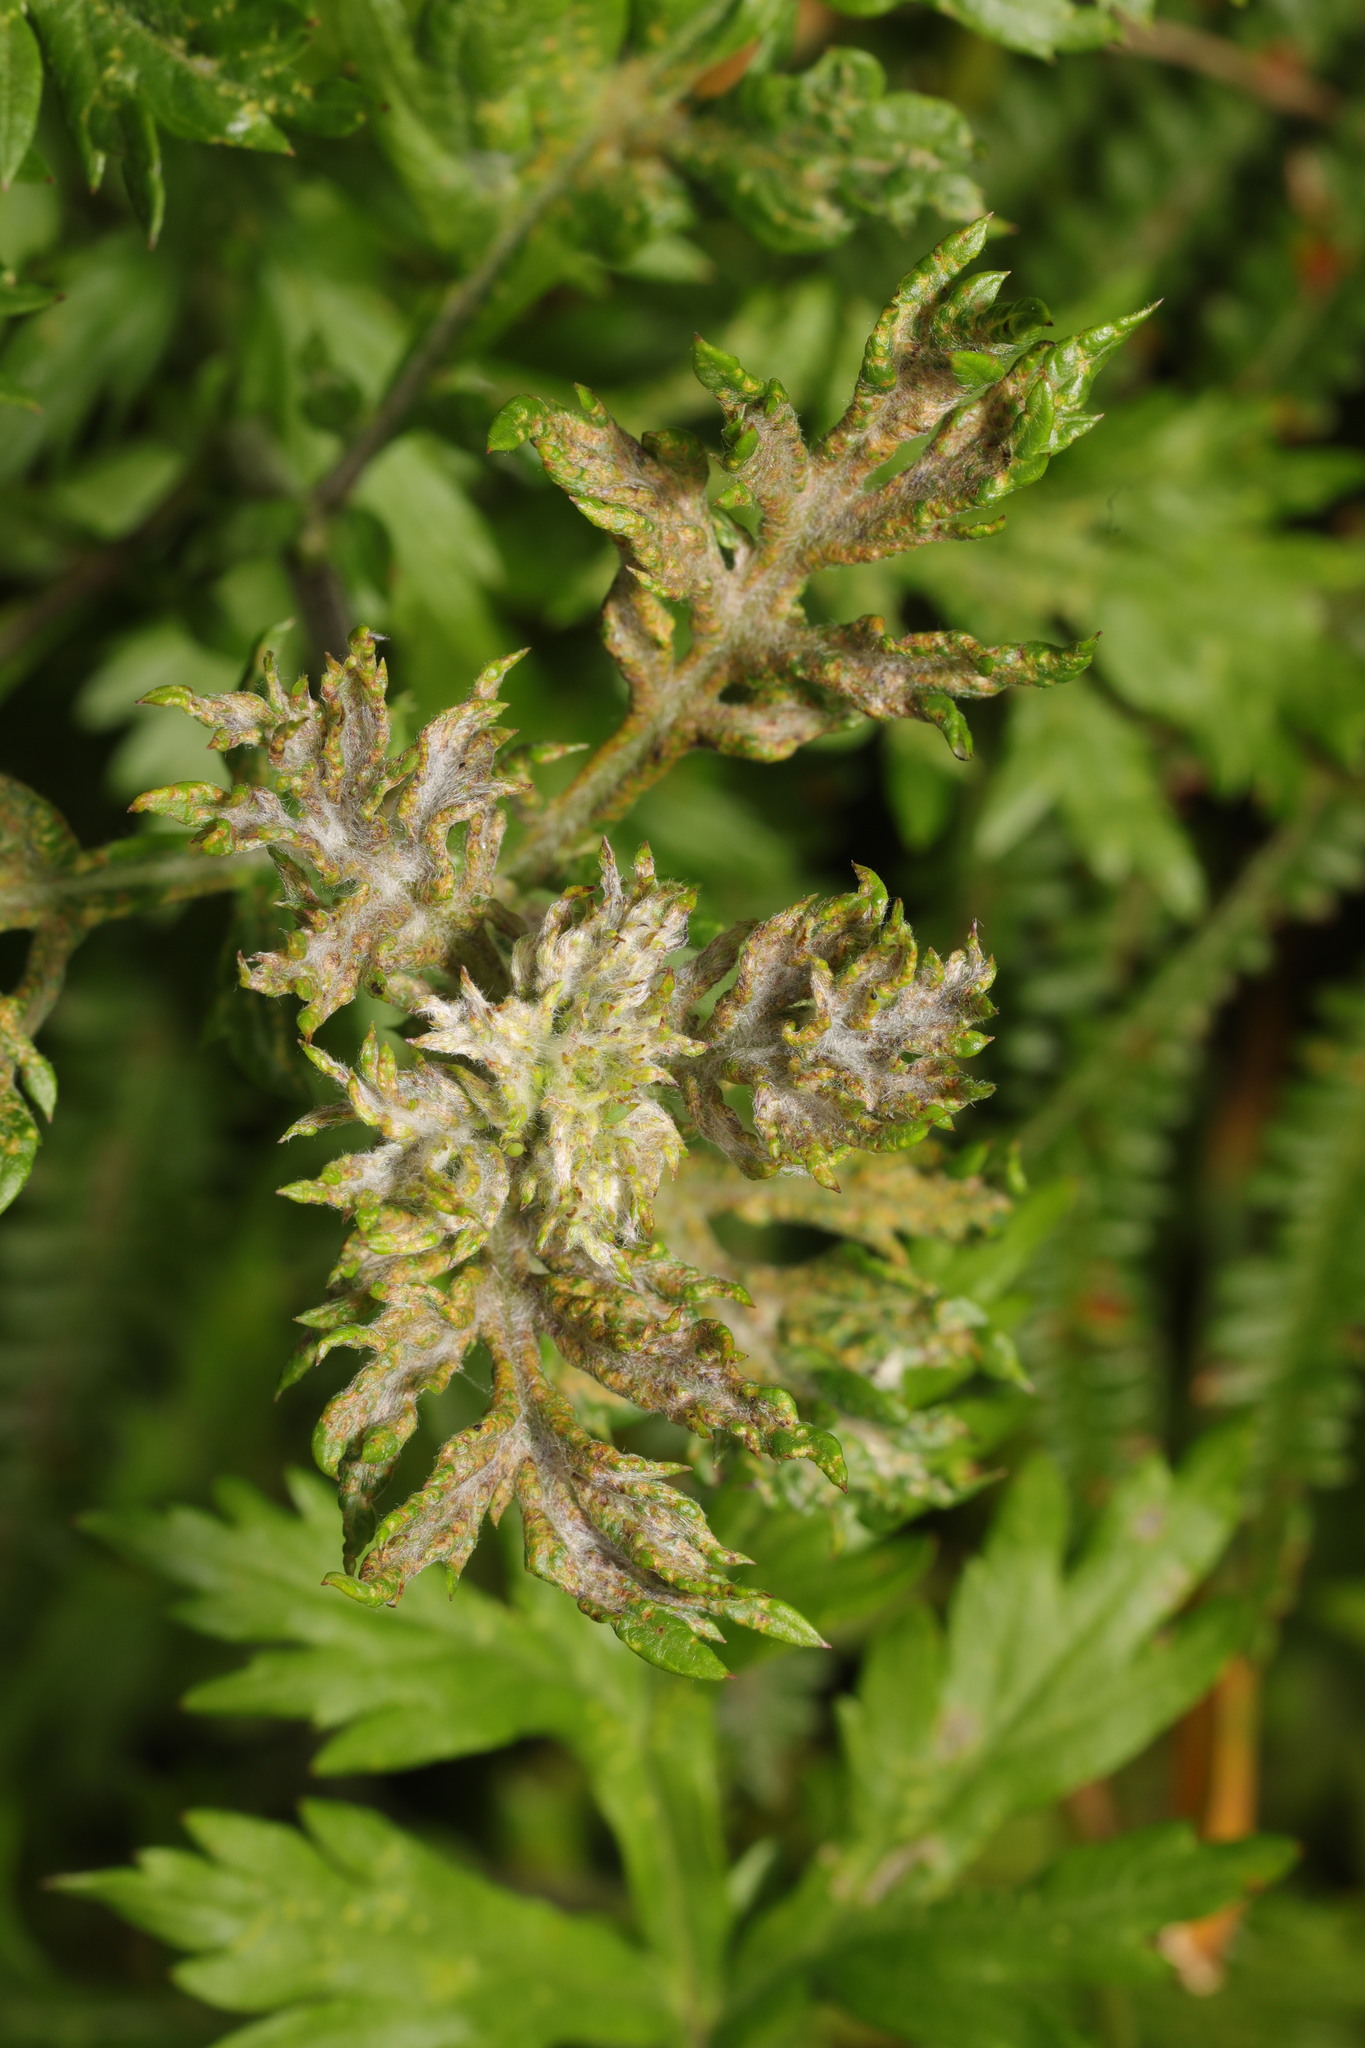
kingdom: Fungi
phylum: Ascomycota
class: Leotiomycetes
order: Helotiales
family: Erysiphaceae
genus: Golovinomyces
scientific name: Golovinomyces artemisiae
